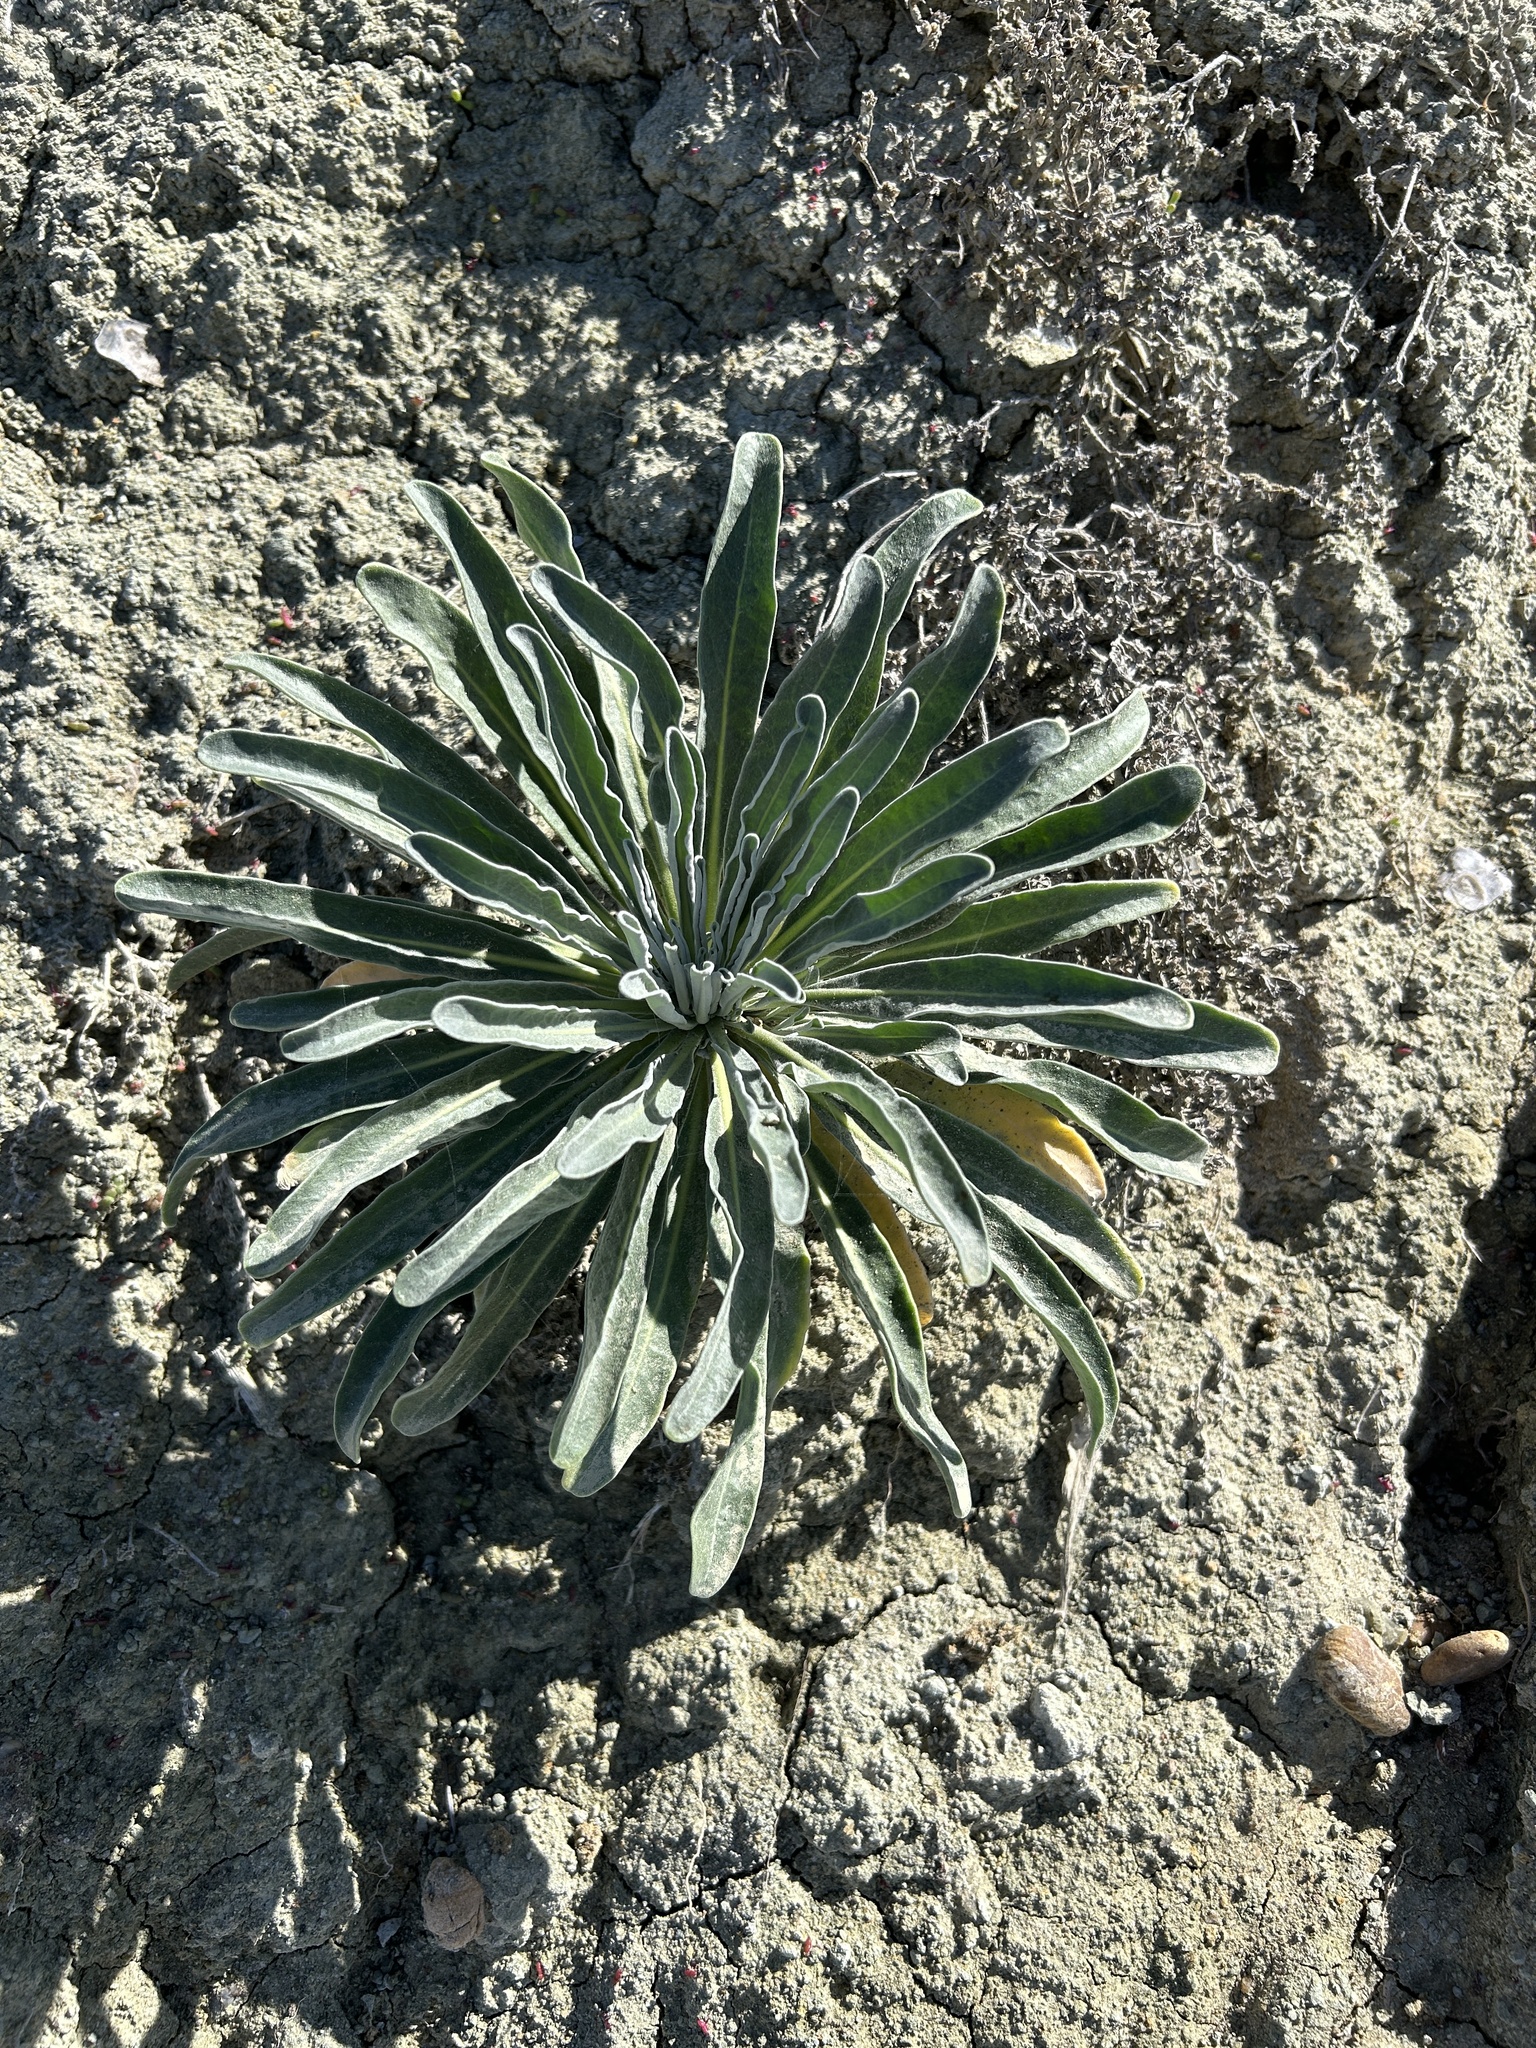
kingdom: Plantae
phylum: Tracheophyta
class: Magnoliopsida
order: Brassicales
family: Brassicaceae
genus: Matthiola
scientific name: Matthiola incana
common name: Hoary stock
